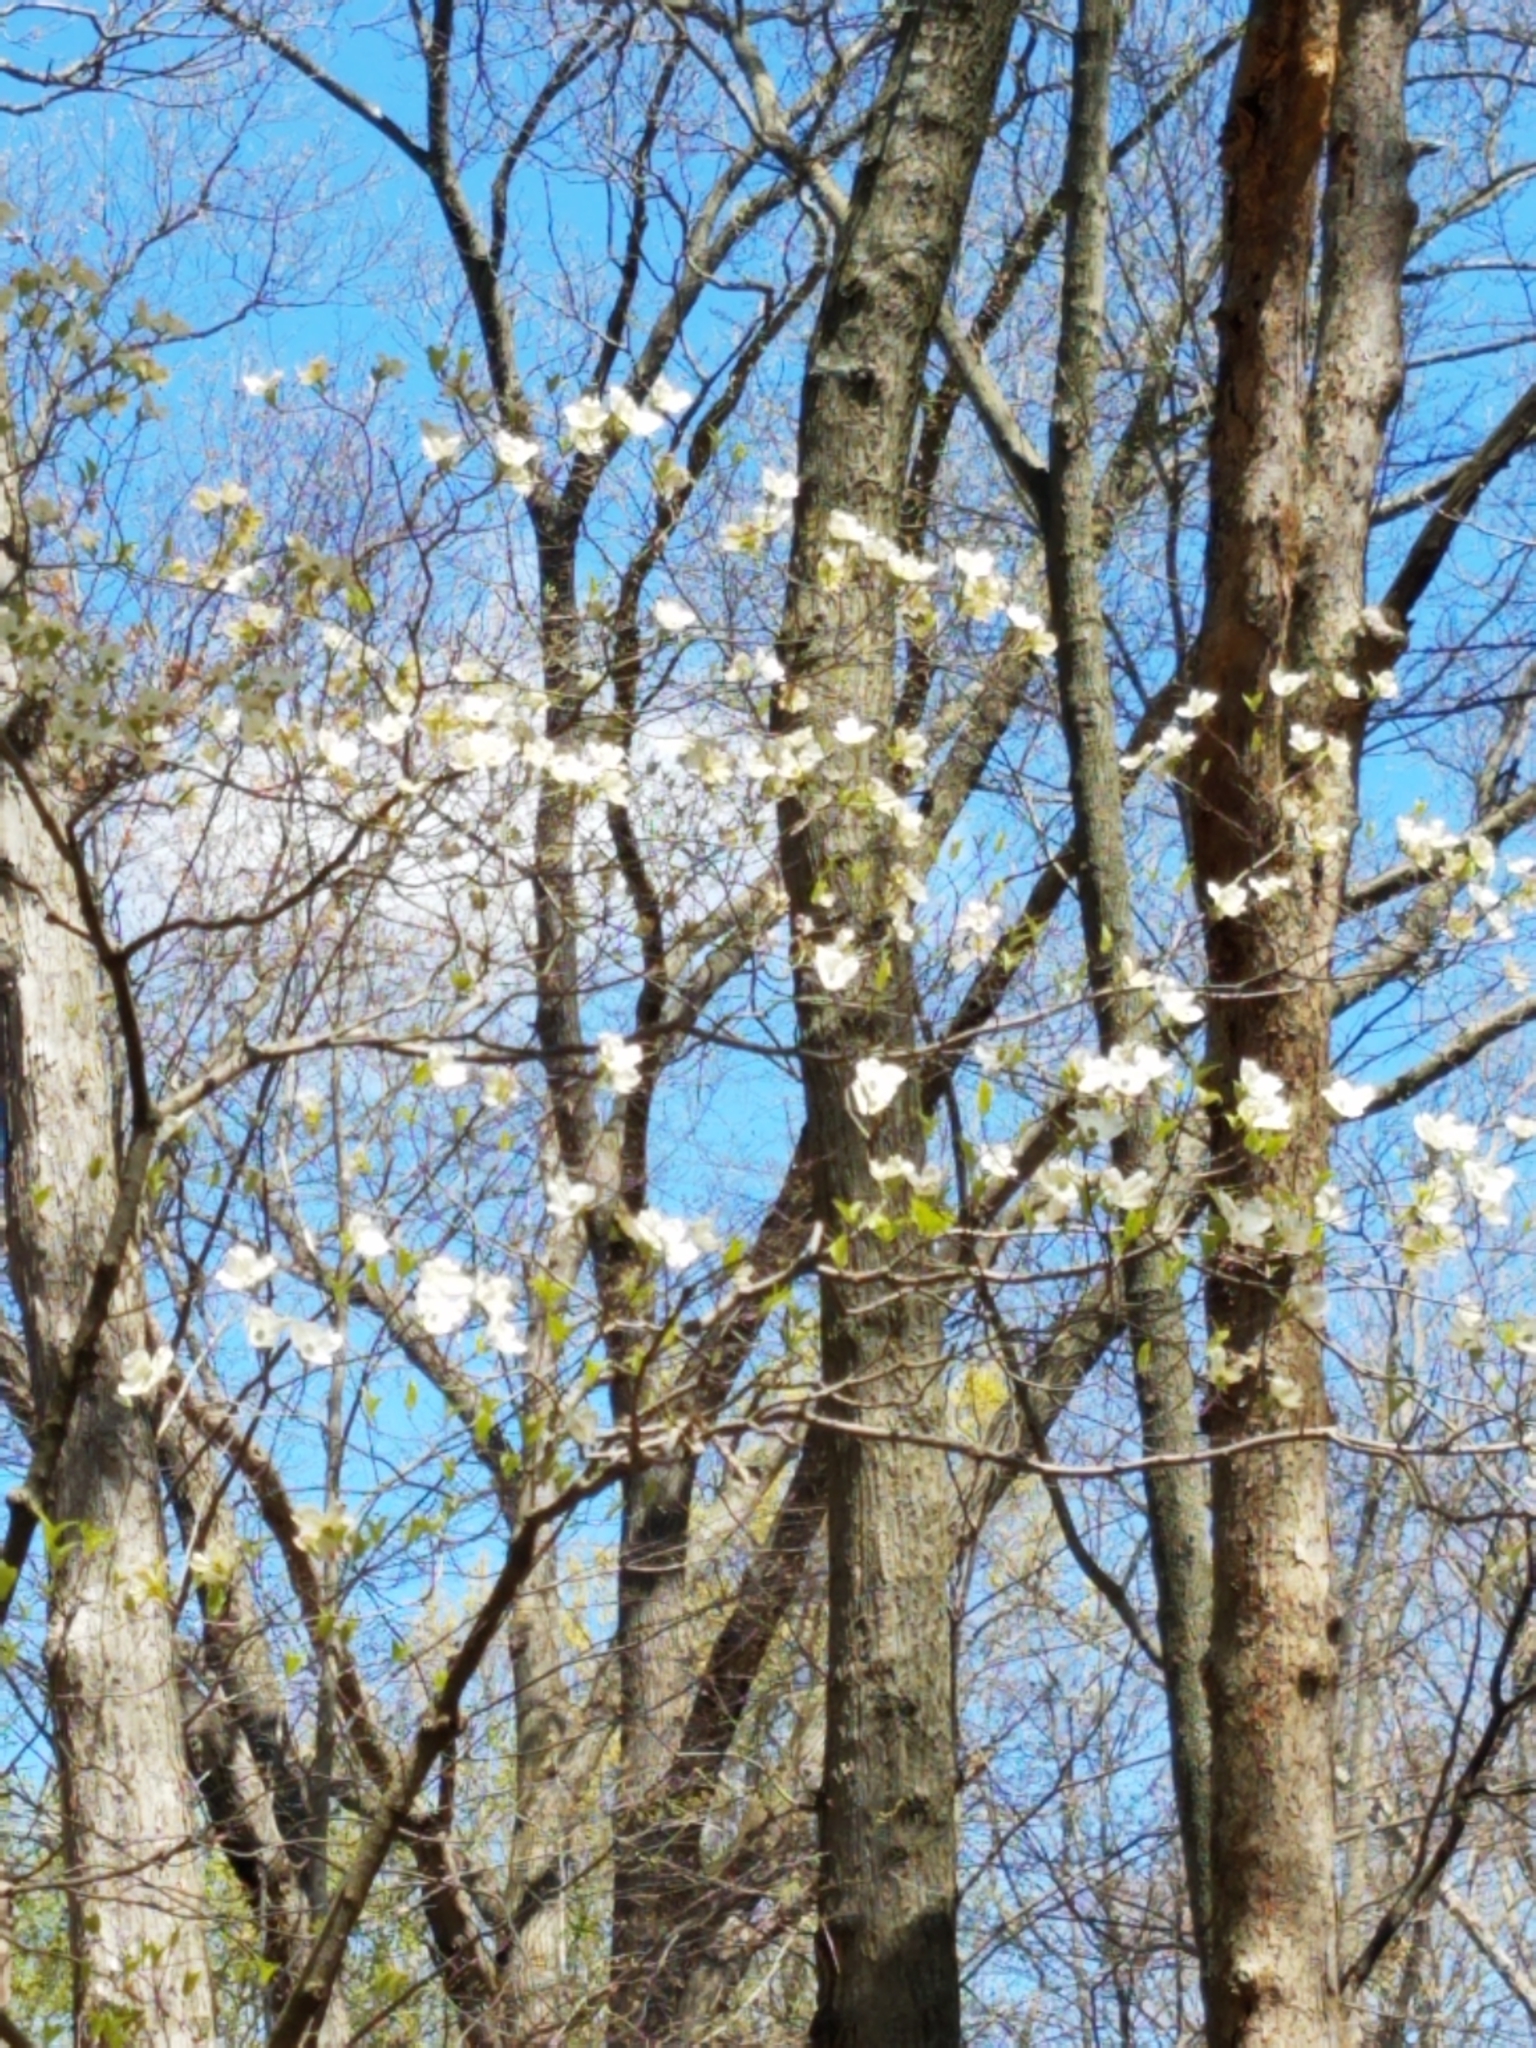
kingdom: Plantae
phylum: Tracheophyta
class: Magnoliopsida
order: Cornales
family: Cornaceae
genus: Cornus
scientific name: Cornus florida
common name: Flowering dogwood
